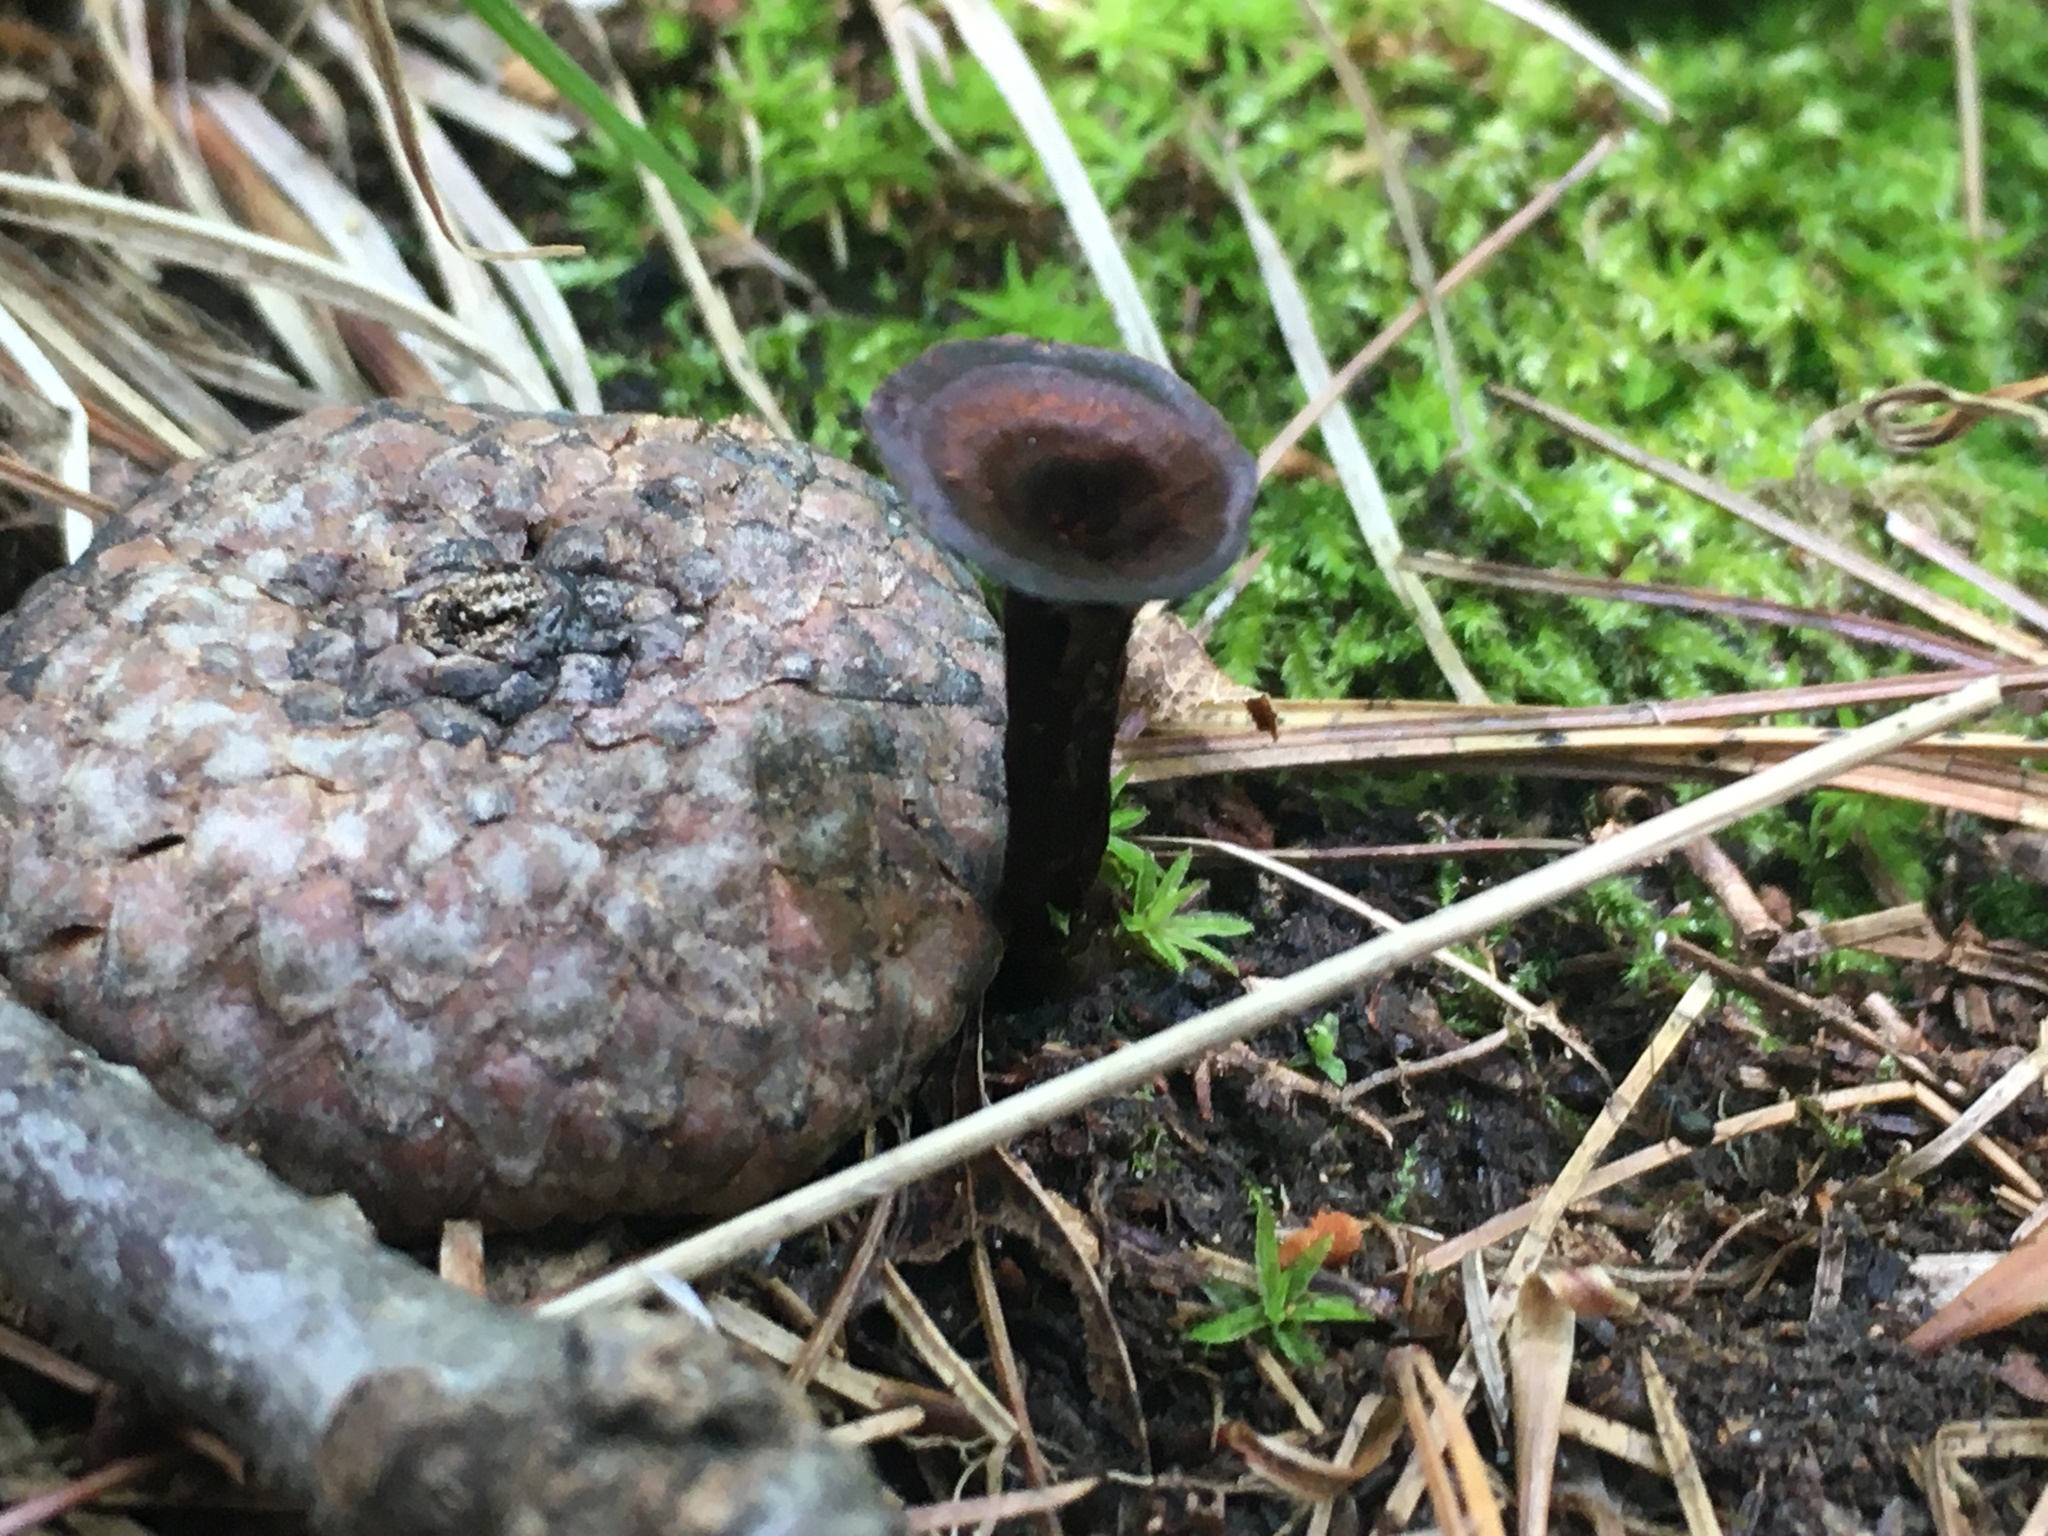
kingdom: Fungi
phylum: Basidiomycota
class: Agaricomycetes
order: Cantharellales
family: Hydnaceae
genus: Craterellus
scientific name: Craterellus cornucopioides
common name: Horn of plenty
